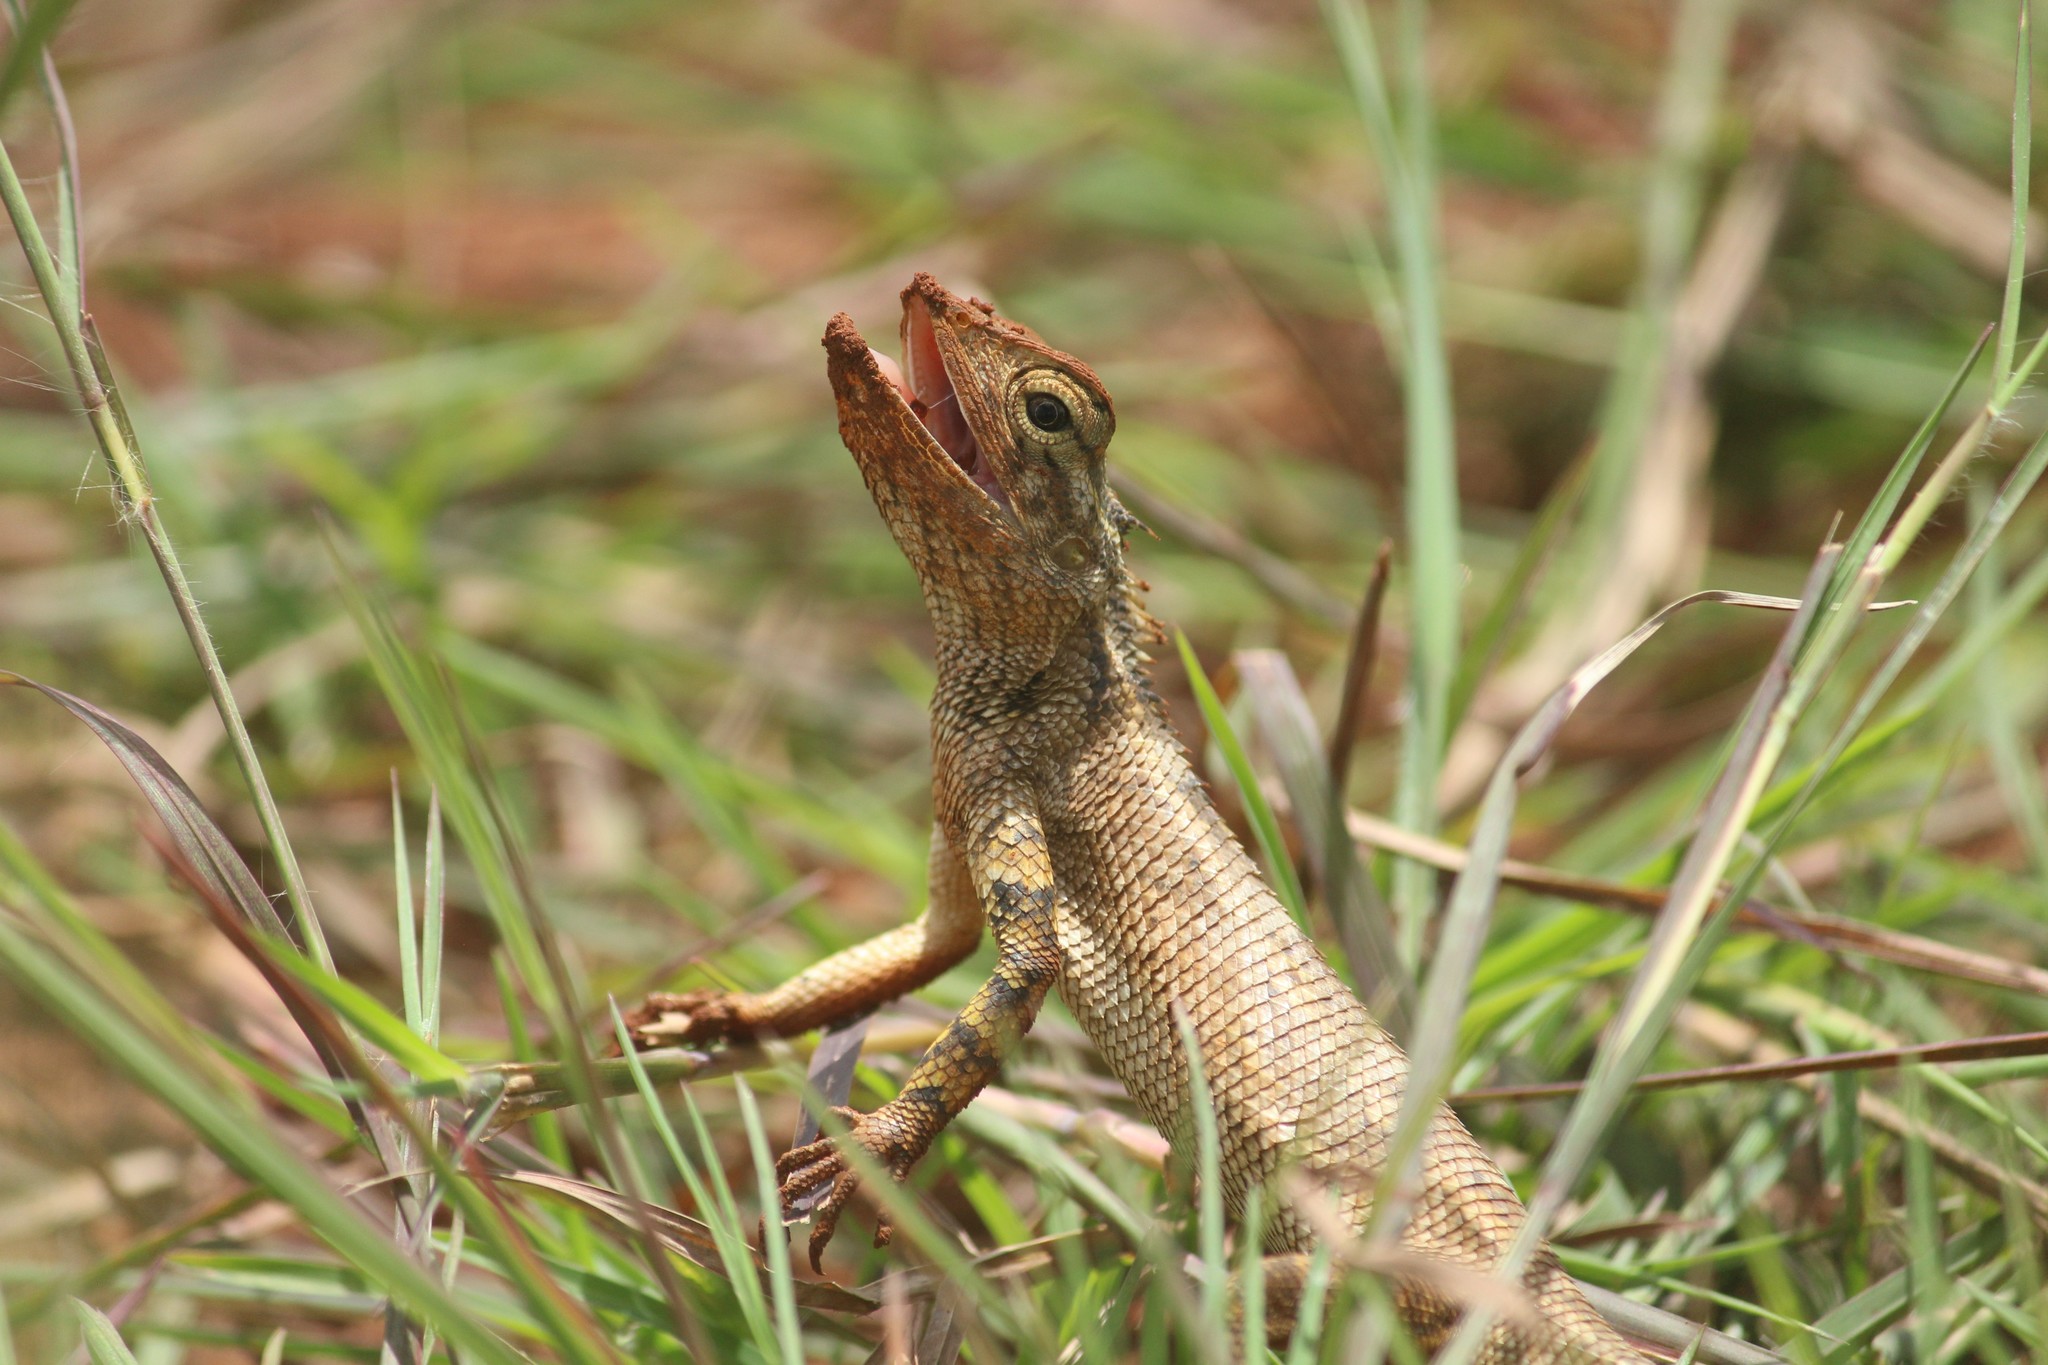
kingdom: Animalia
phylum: Chordata
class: Squamata
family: Agamidae
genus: Calotes
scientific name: Calotes versicolor
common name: Oriental garden lizard
